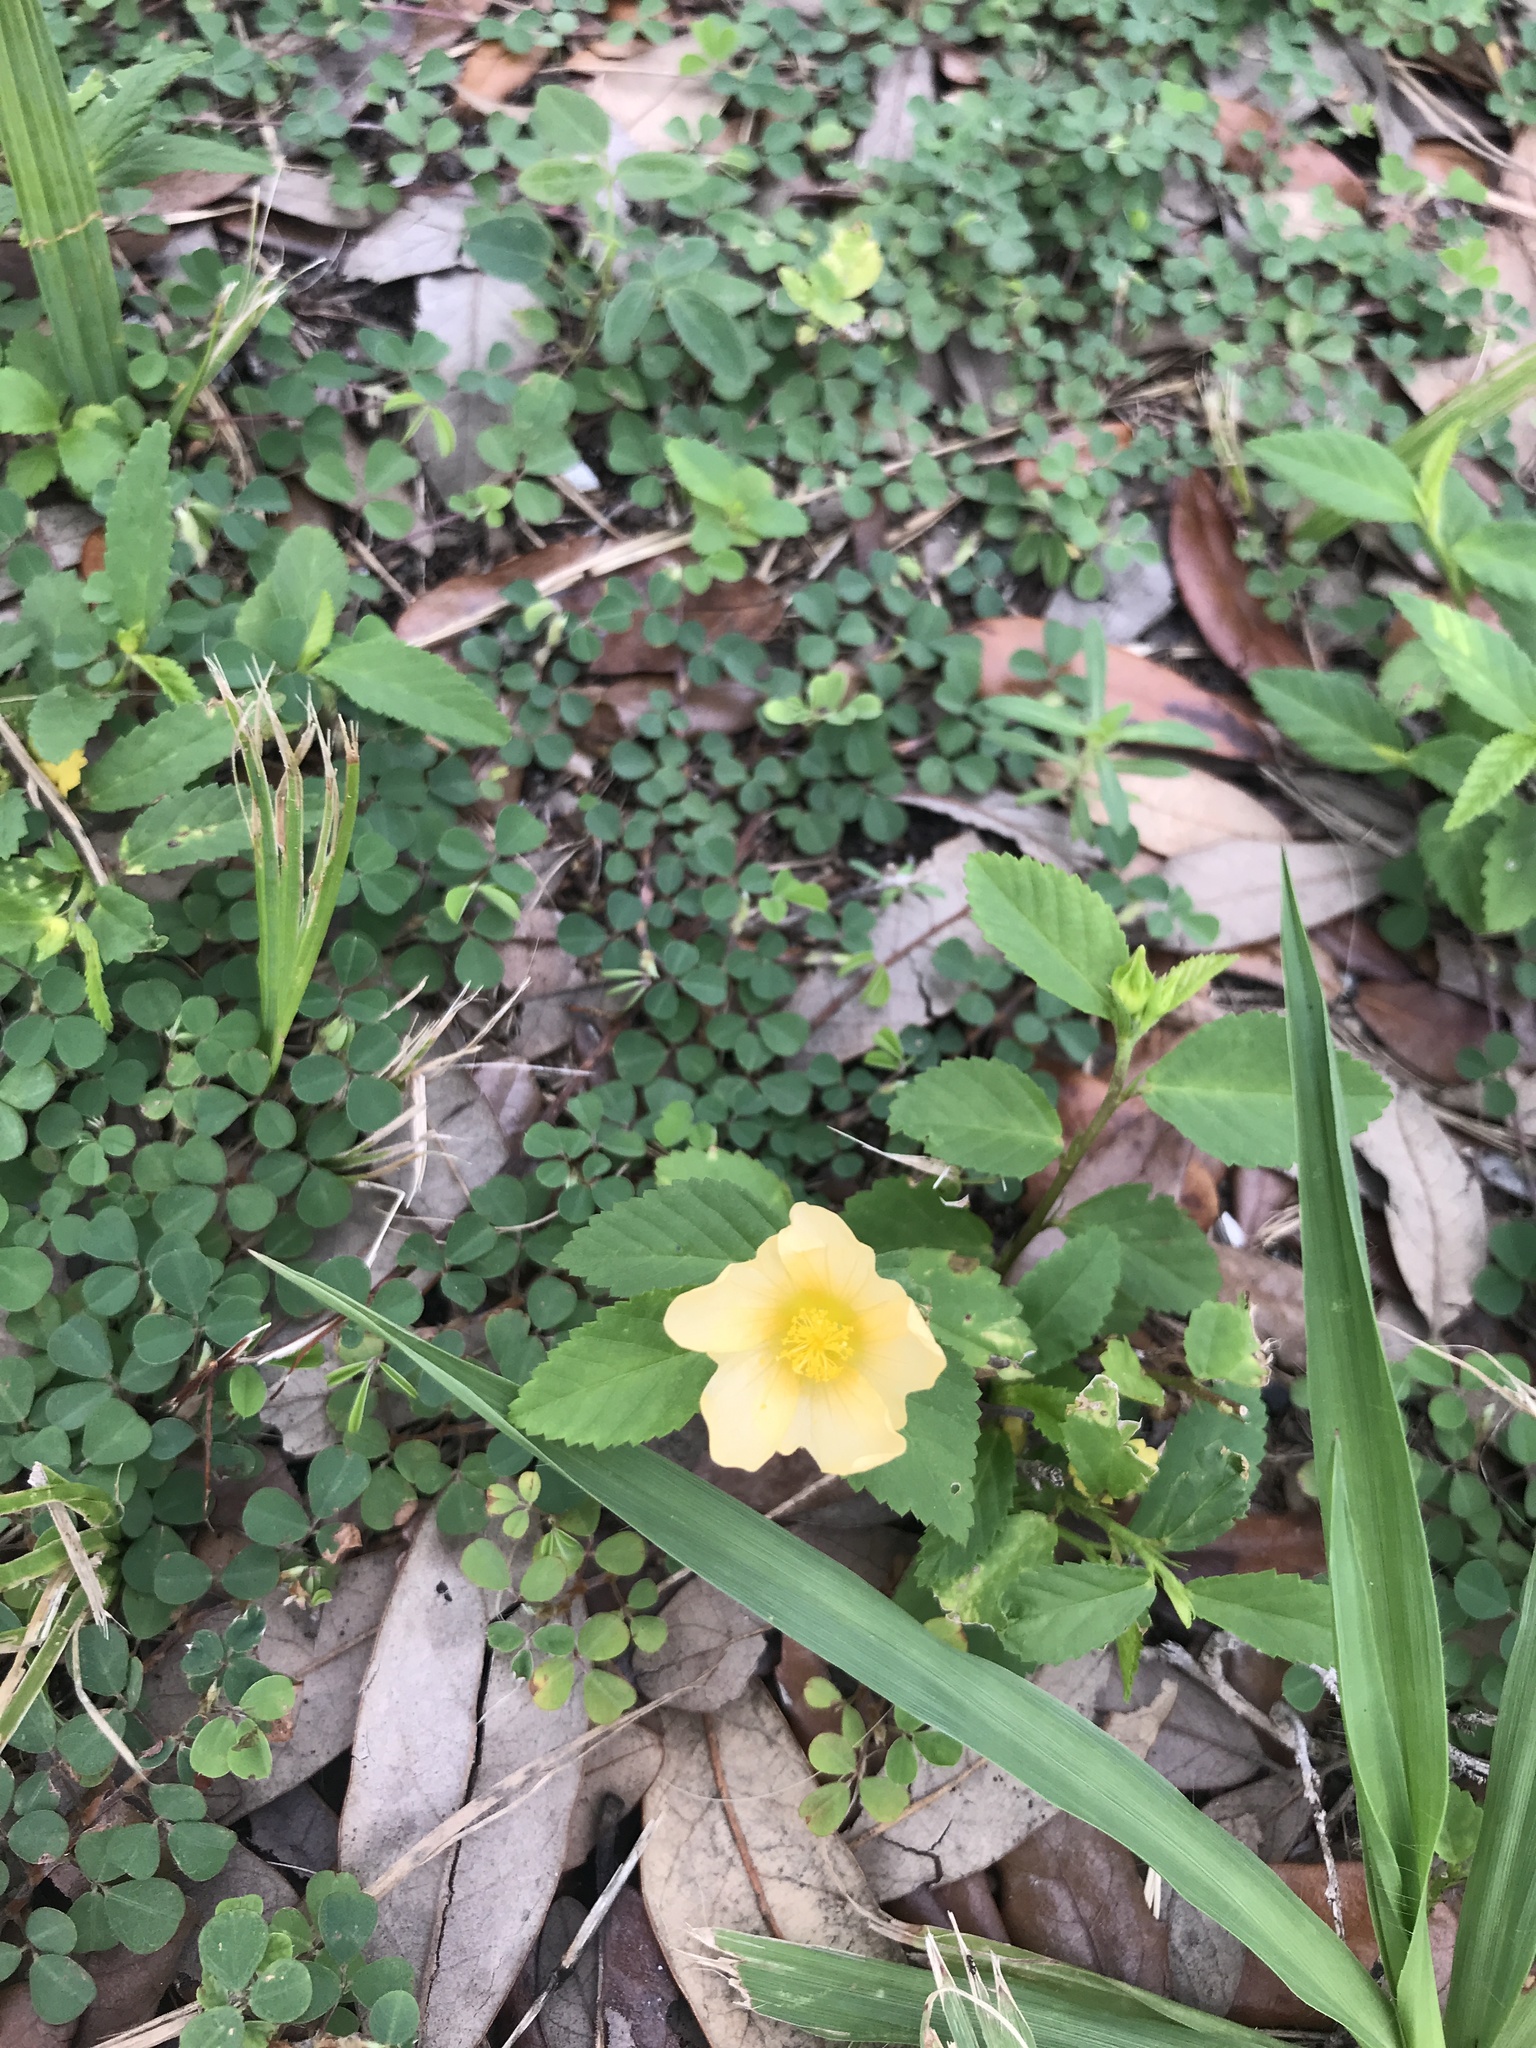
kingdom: Plantae
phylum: Tracheophyta
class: Magnoliopsida
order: Malvales
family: Malvaceae
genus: Sida
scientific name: Sida ulmifolia
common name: Broom weed
